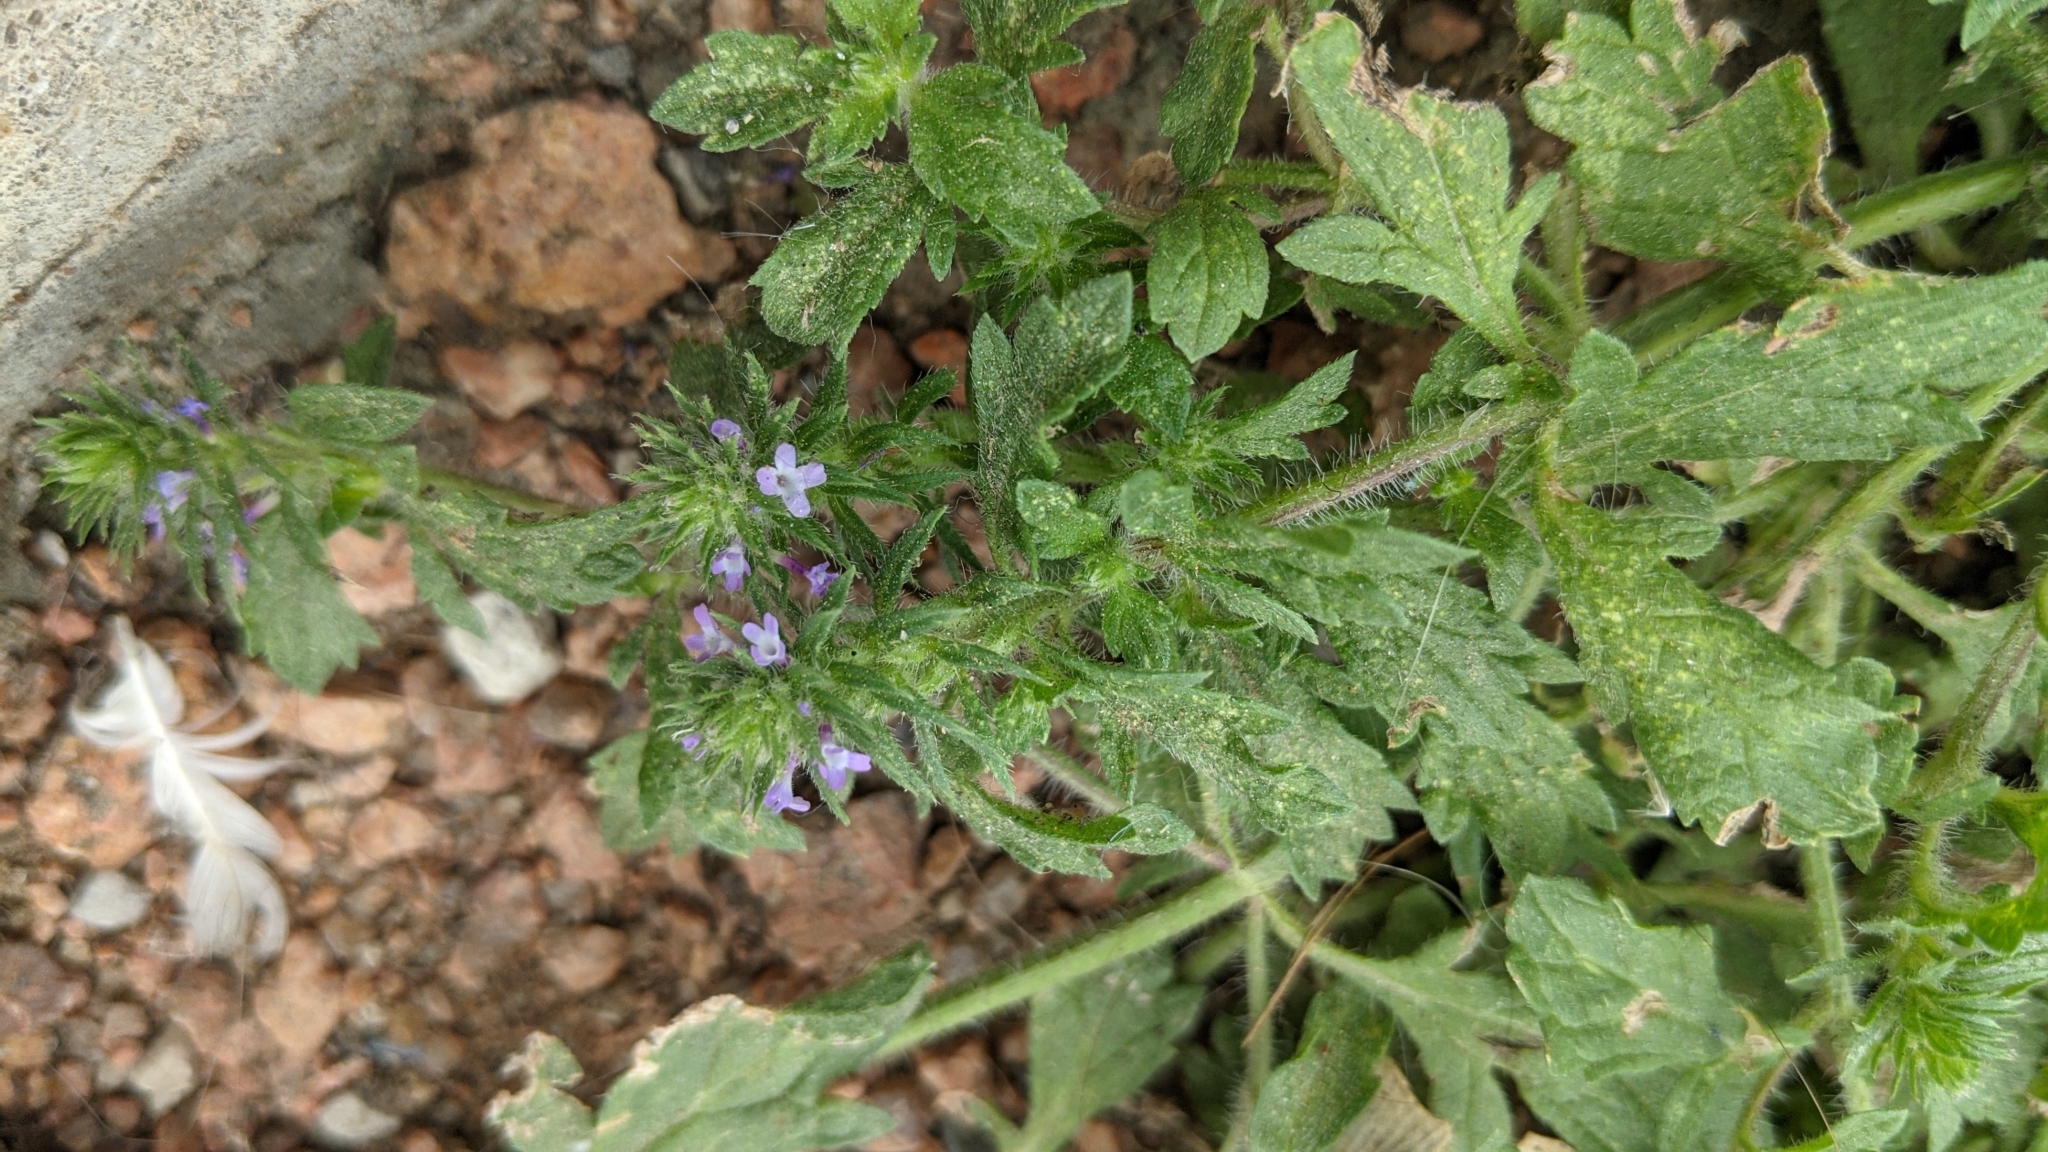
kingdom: Plantae
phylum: Tracheophyta
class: Magnoliopsida
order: Lamiales
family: Verbenaceae
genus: Verbena
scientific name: Verbena bracteata
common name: Bracted vervain
